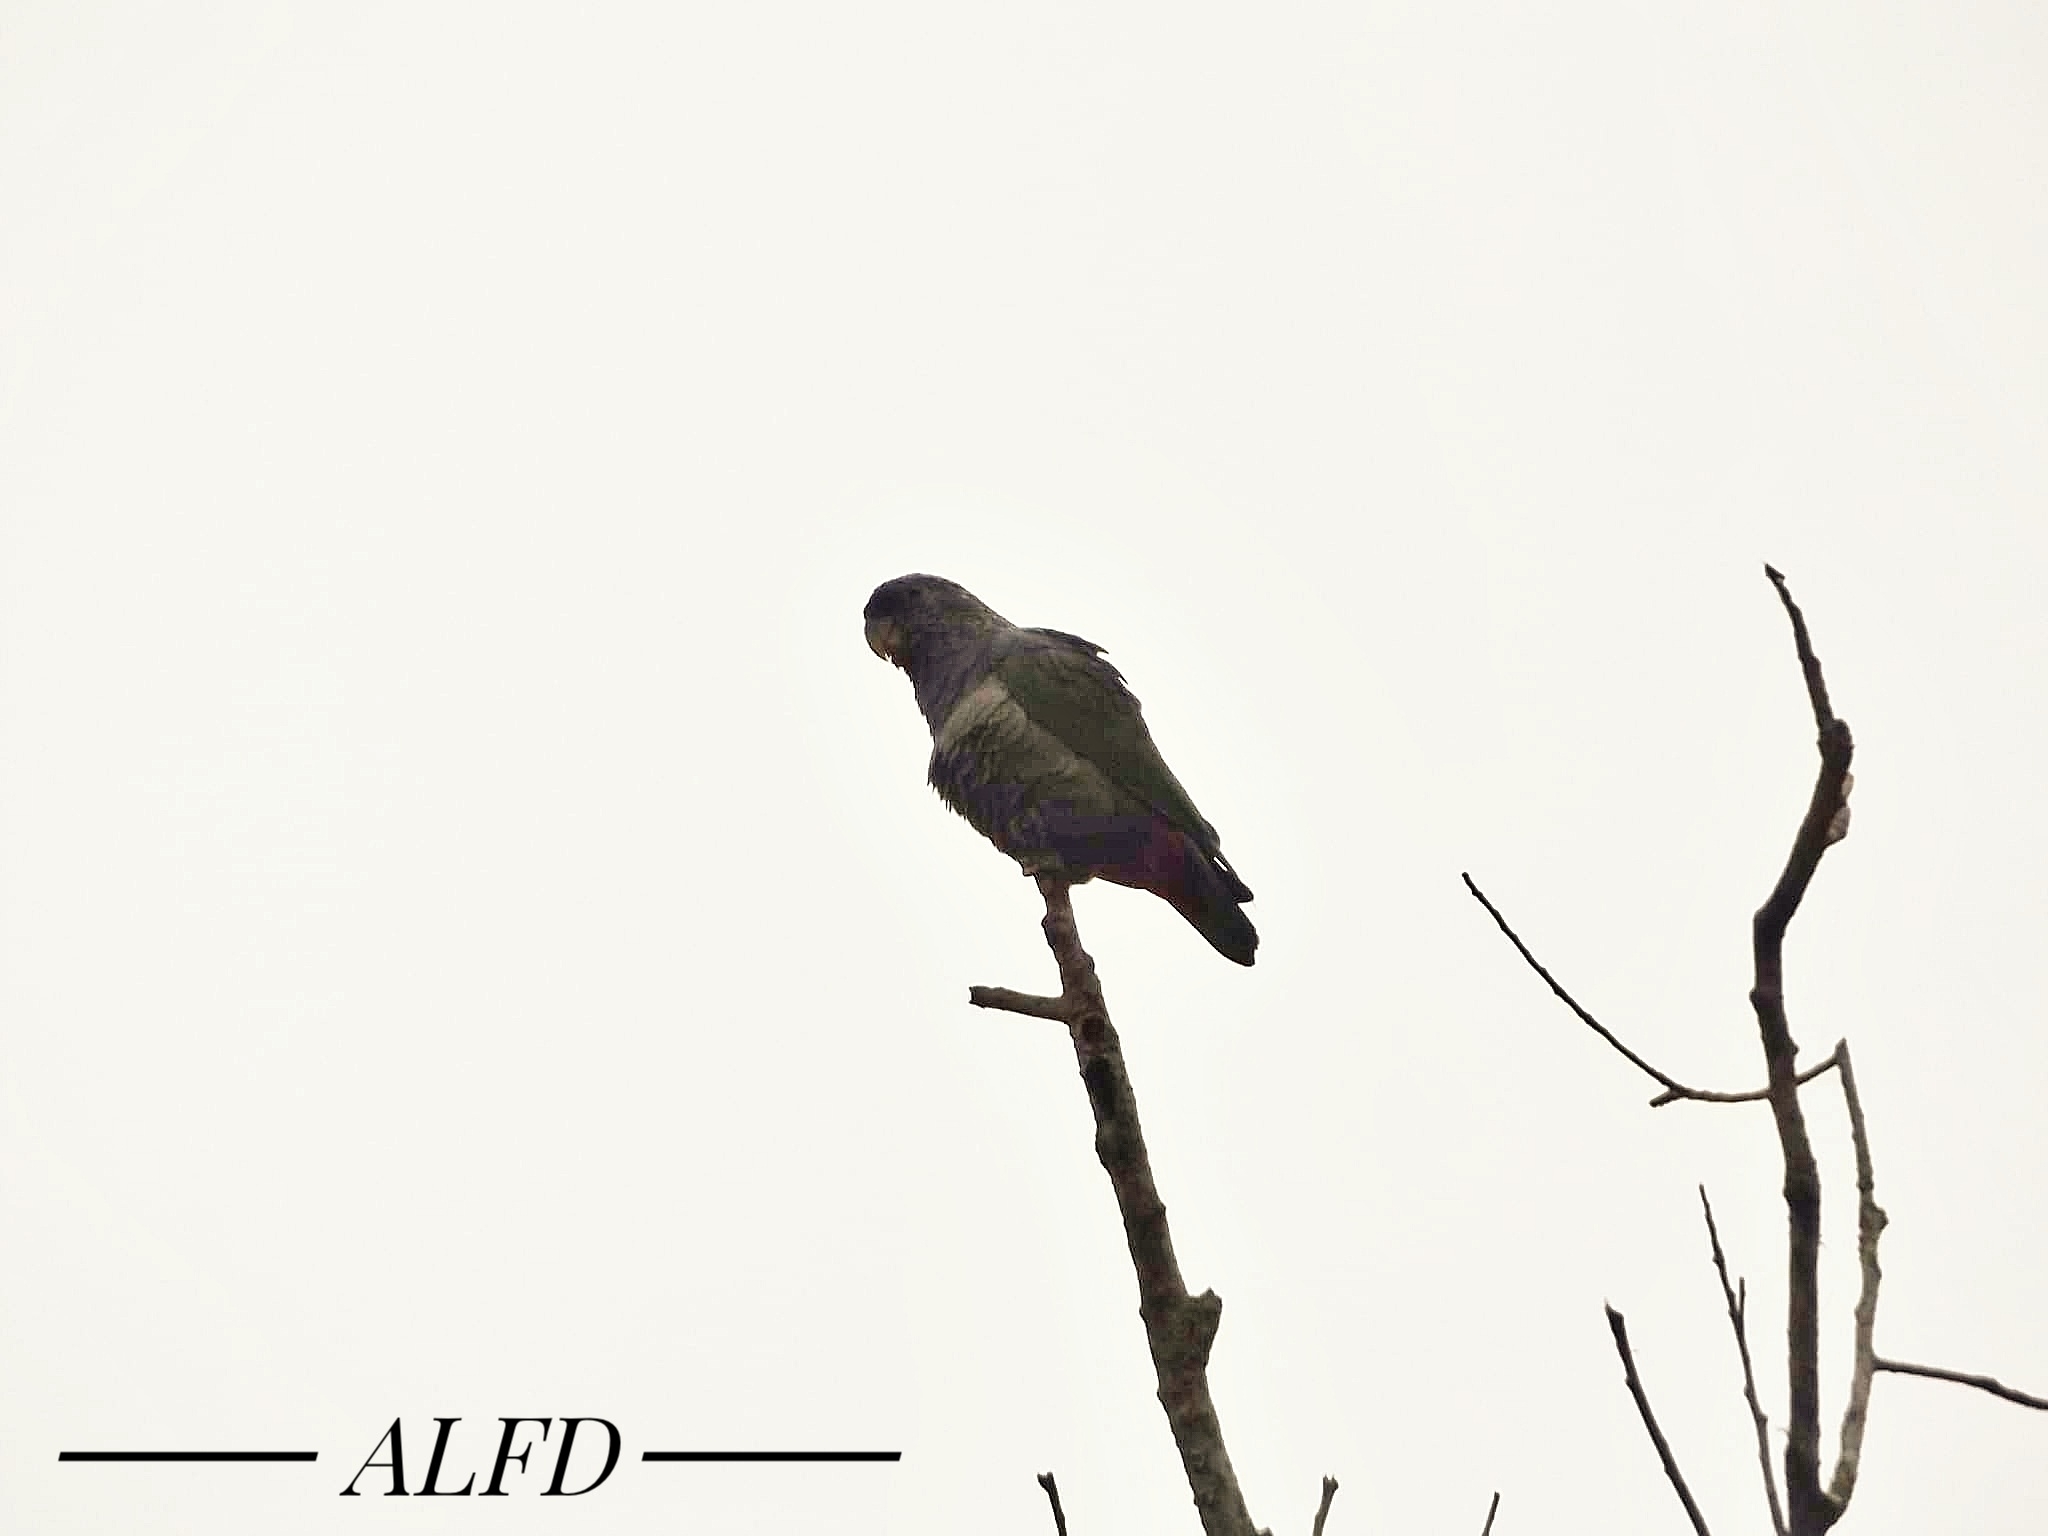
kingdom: Animalia
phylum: Chordata
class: Aves
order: Psittaciformes
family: Psittacidae
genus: Pionus
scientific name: Pionus maximiliani
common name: Scaly-headed parrot
